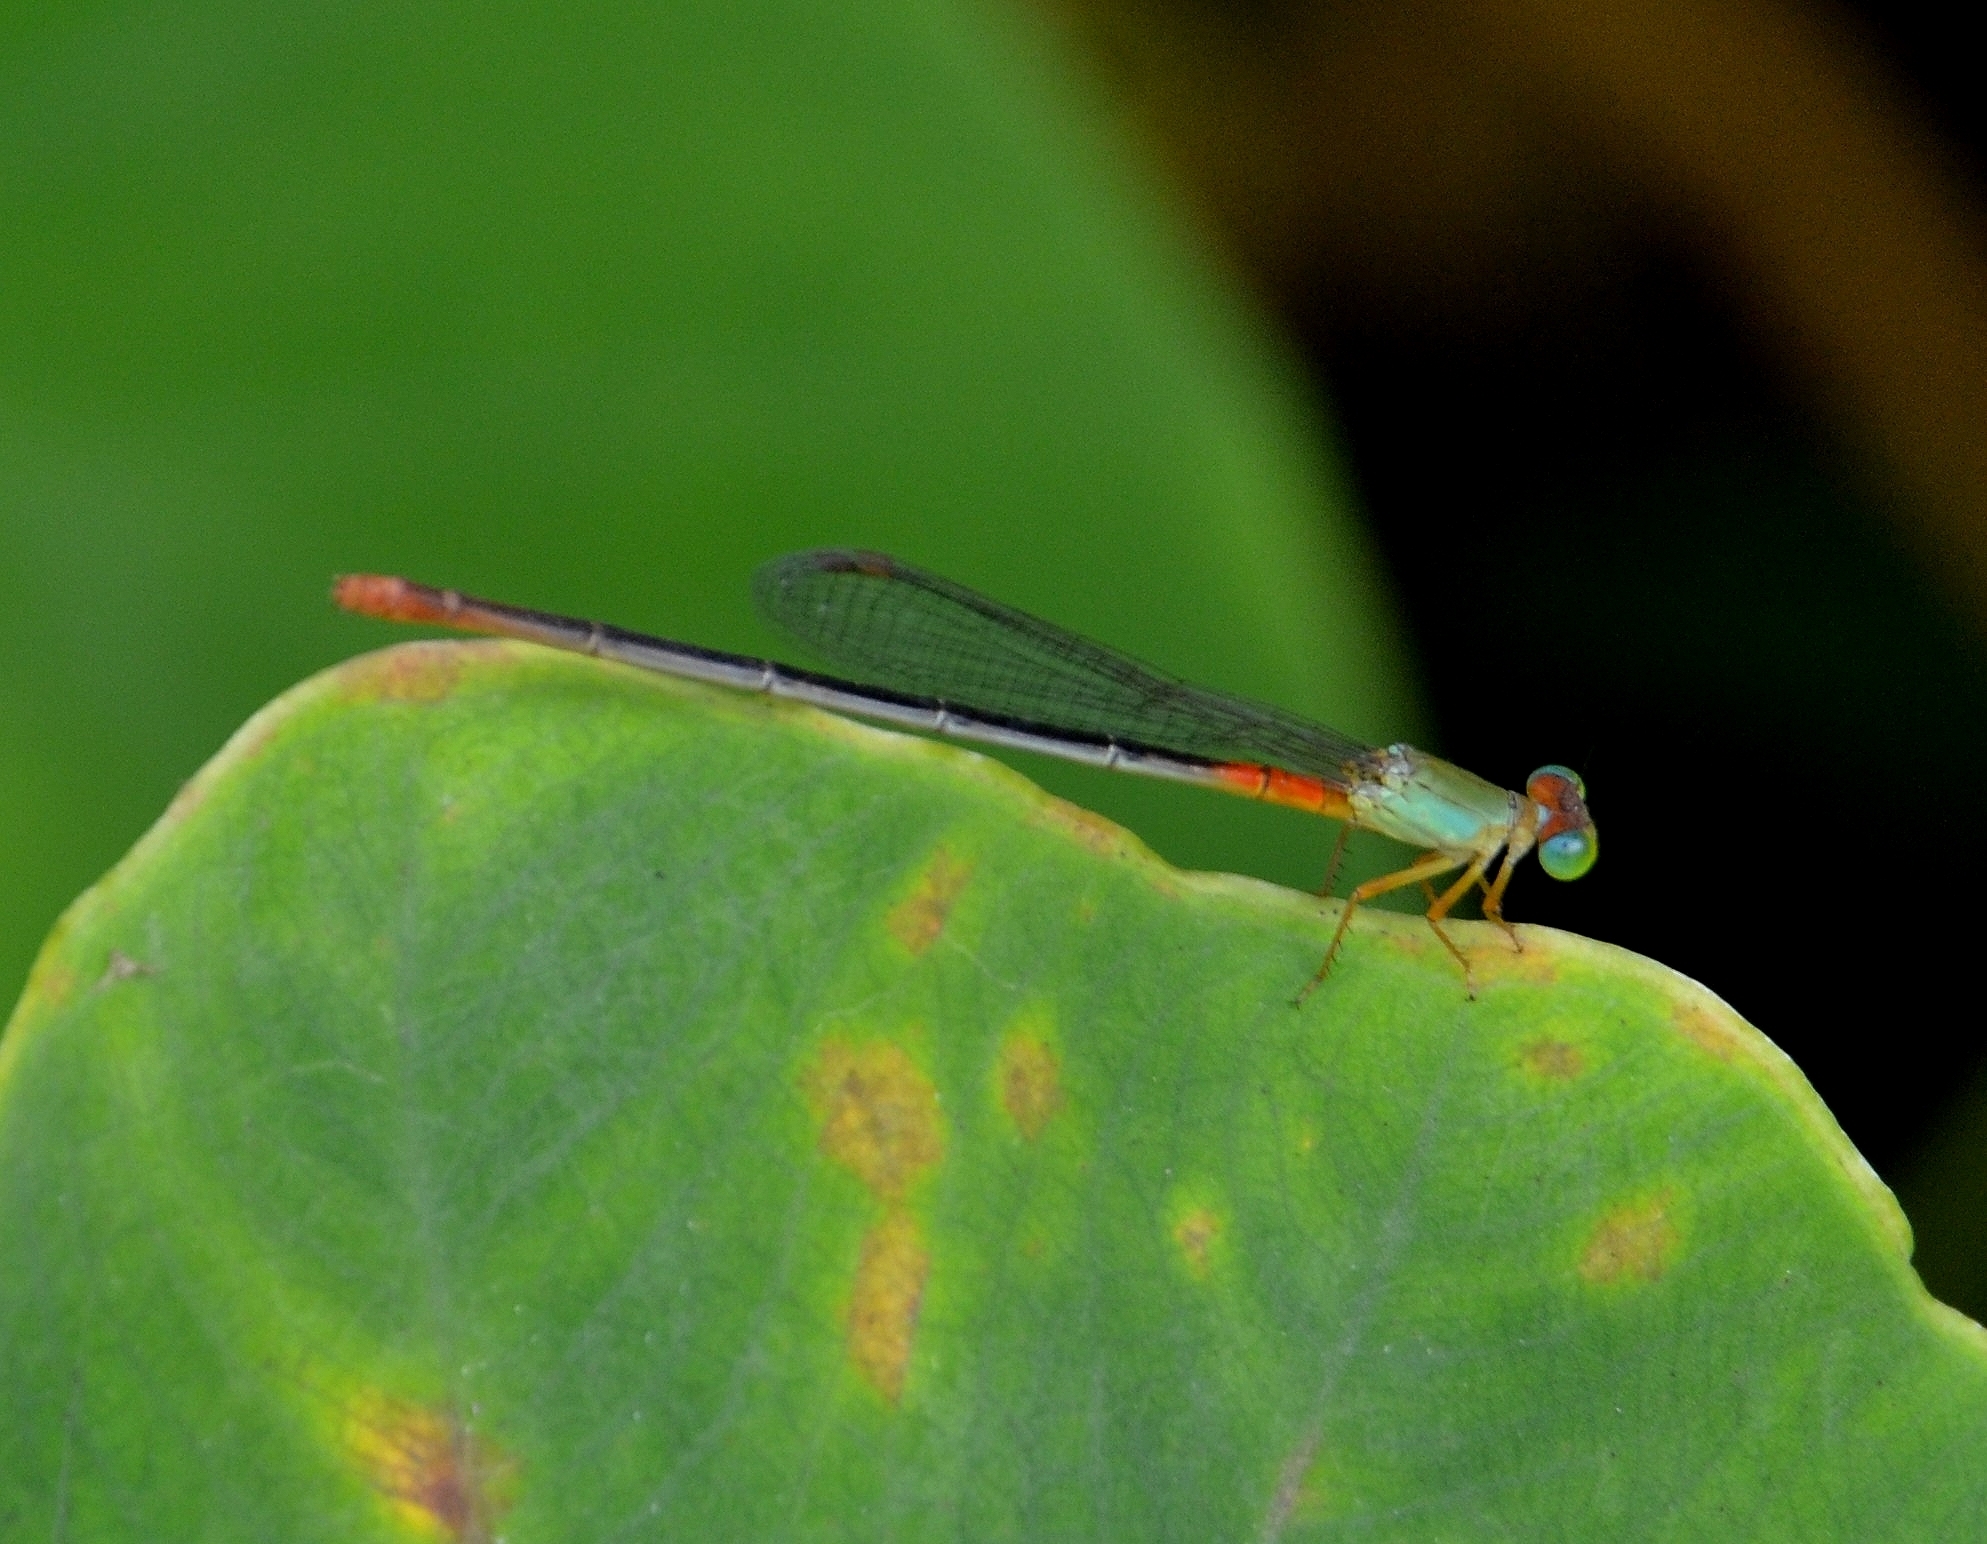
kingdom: Animalia
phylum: Arthropoda
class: Insecta
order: Odonata
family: Coenagrionidae
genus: Ceriagrion
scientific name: Ceriagrion cerinorubellum
